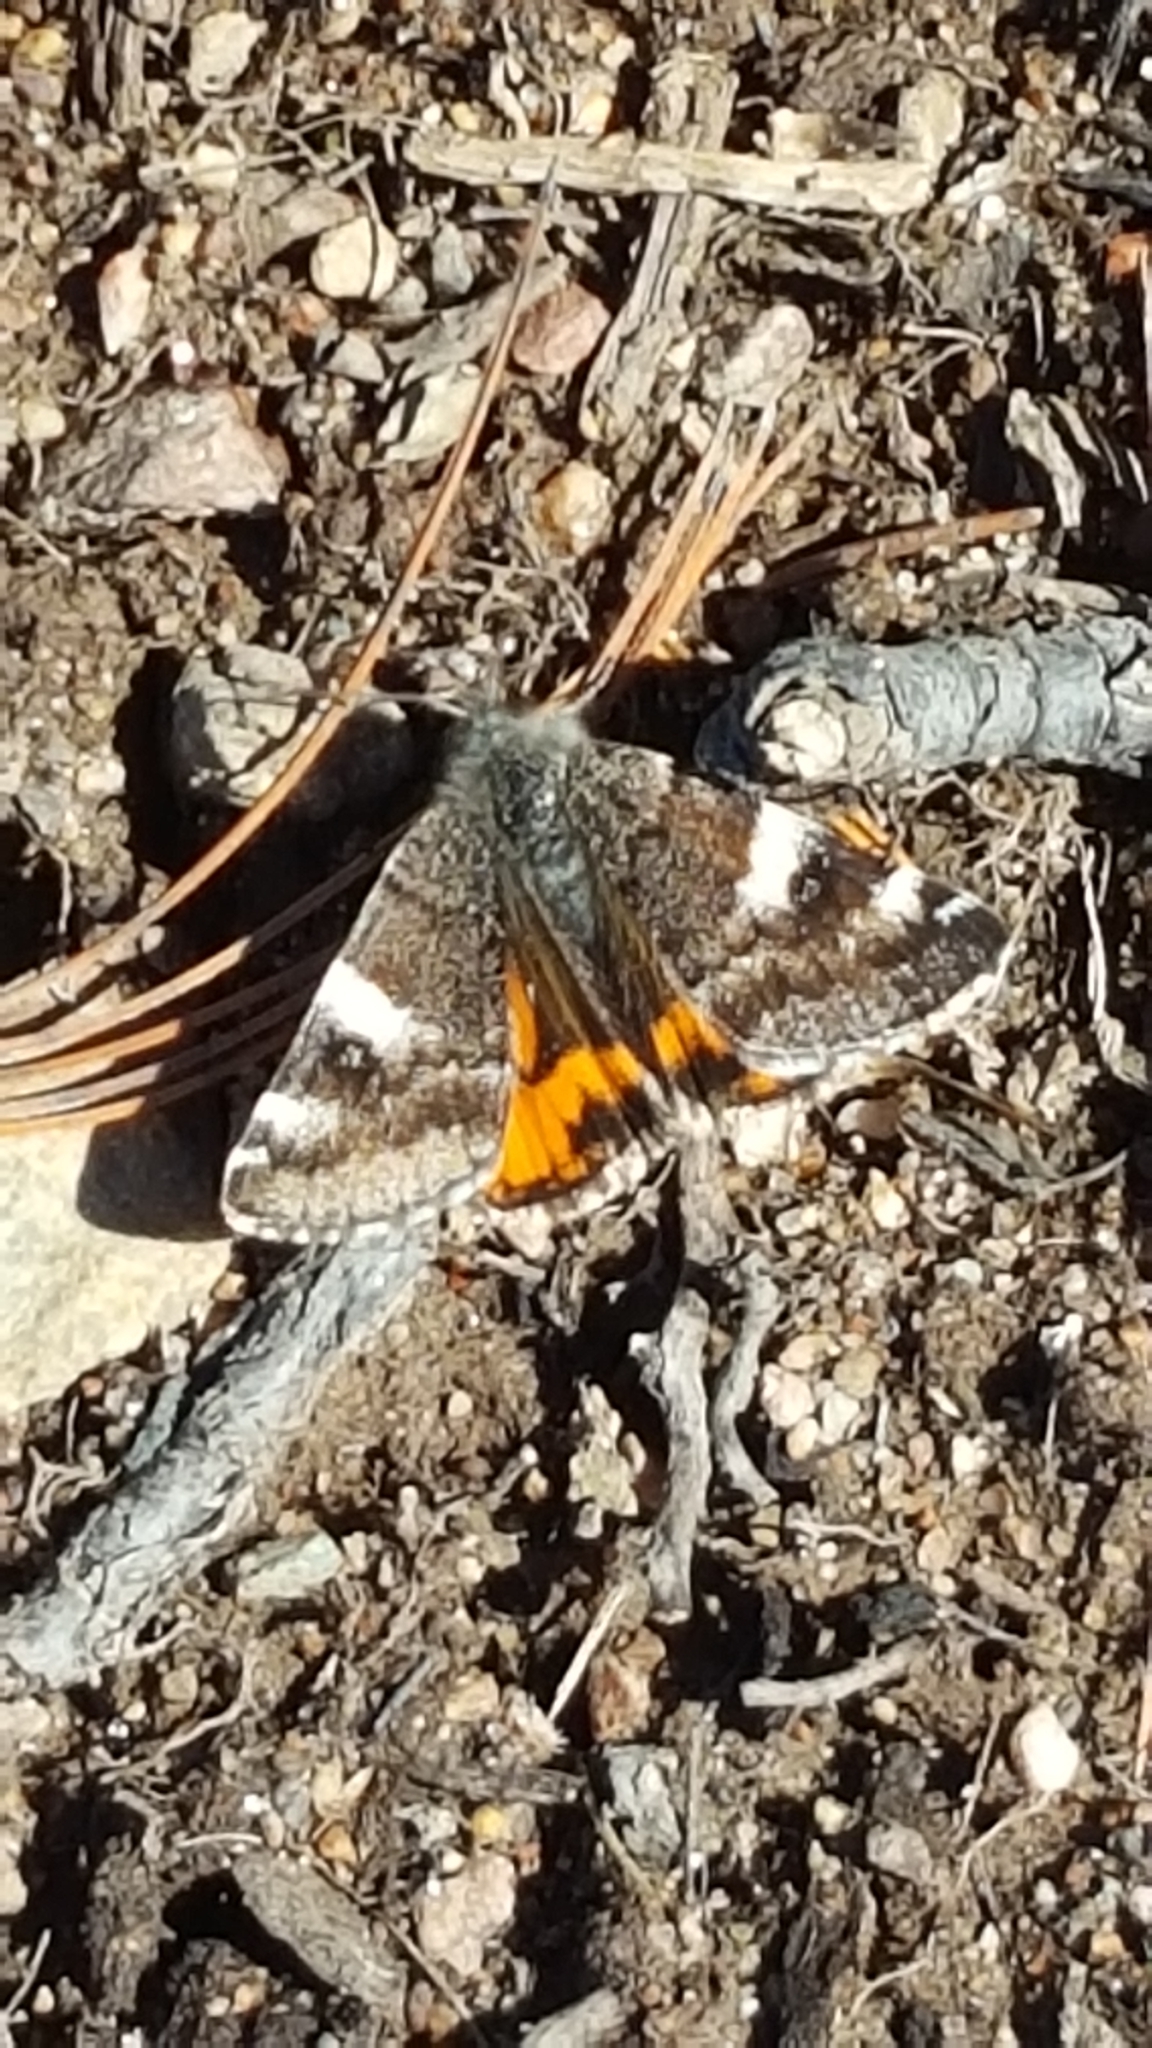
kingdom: Animalia
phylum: Arthropoda
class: Insecta
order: Lepidoptera
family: Geometridae
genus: Archiearis
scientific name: Archiearis infans
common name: First born geometer
